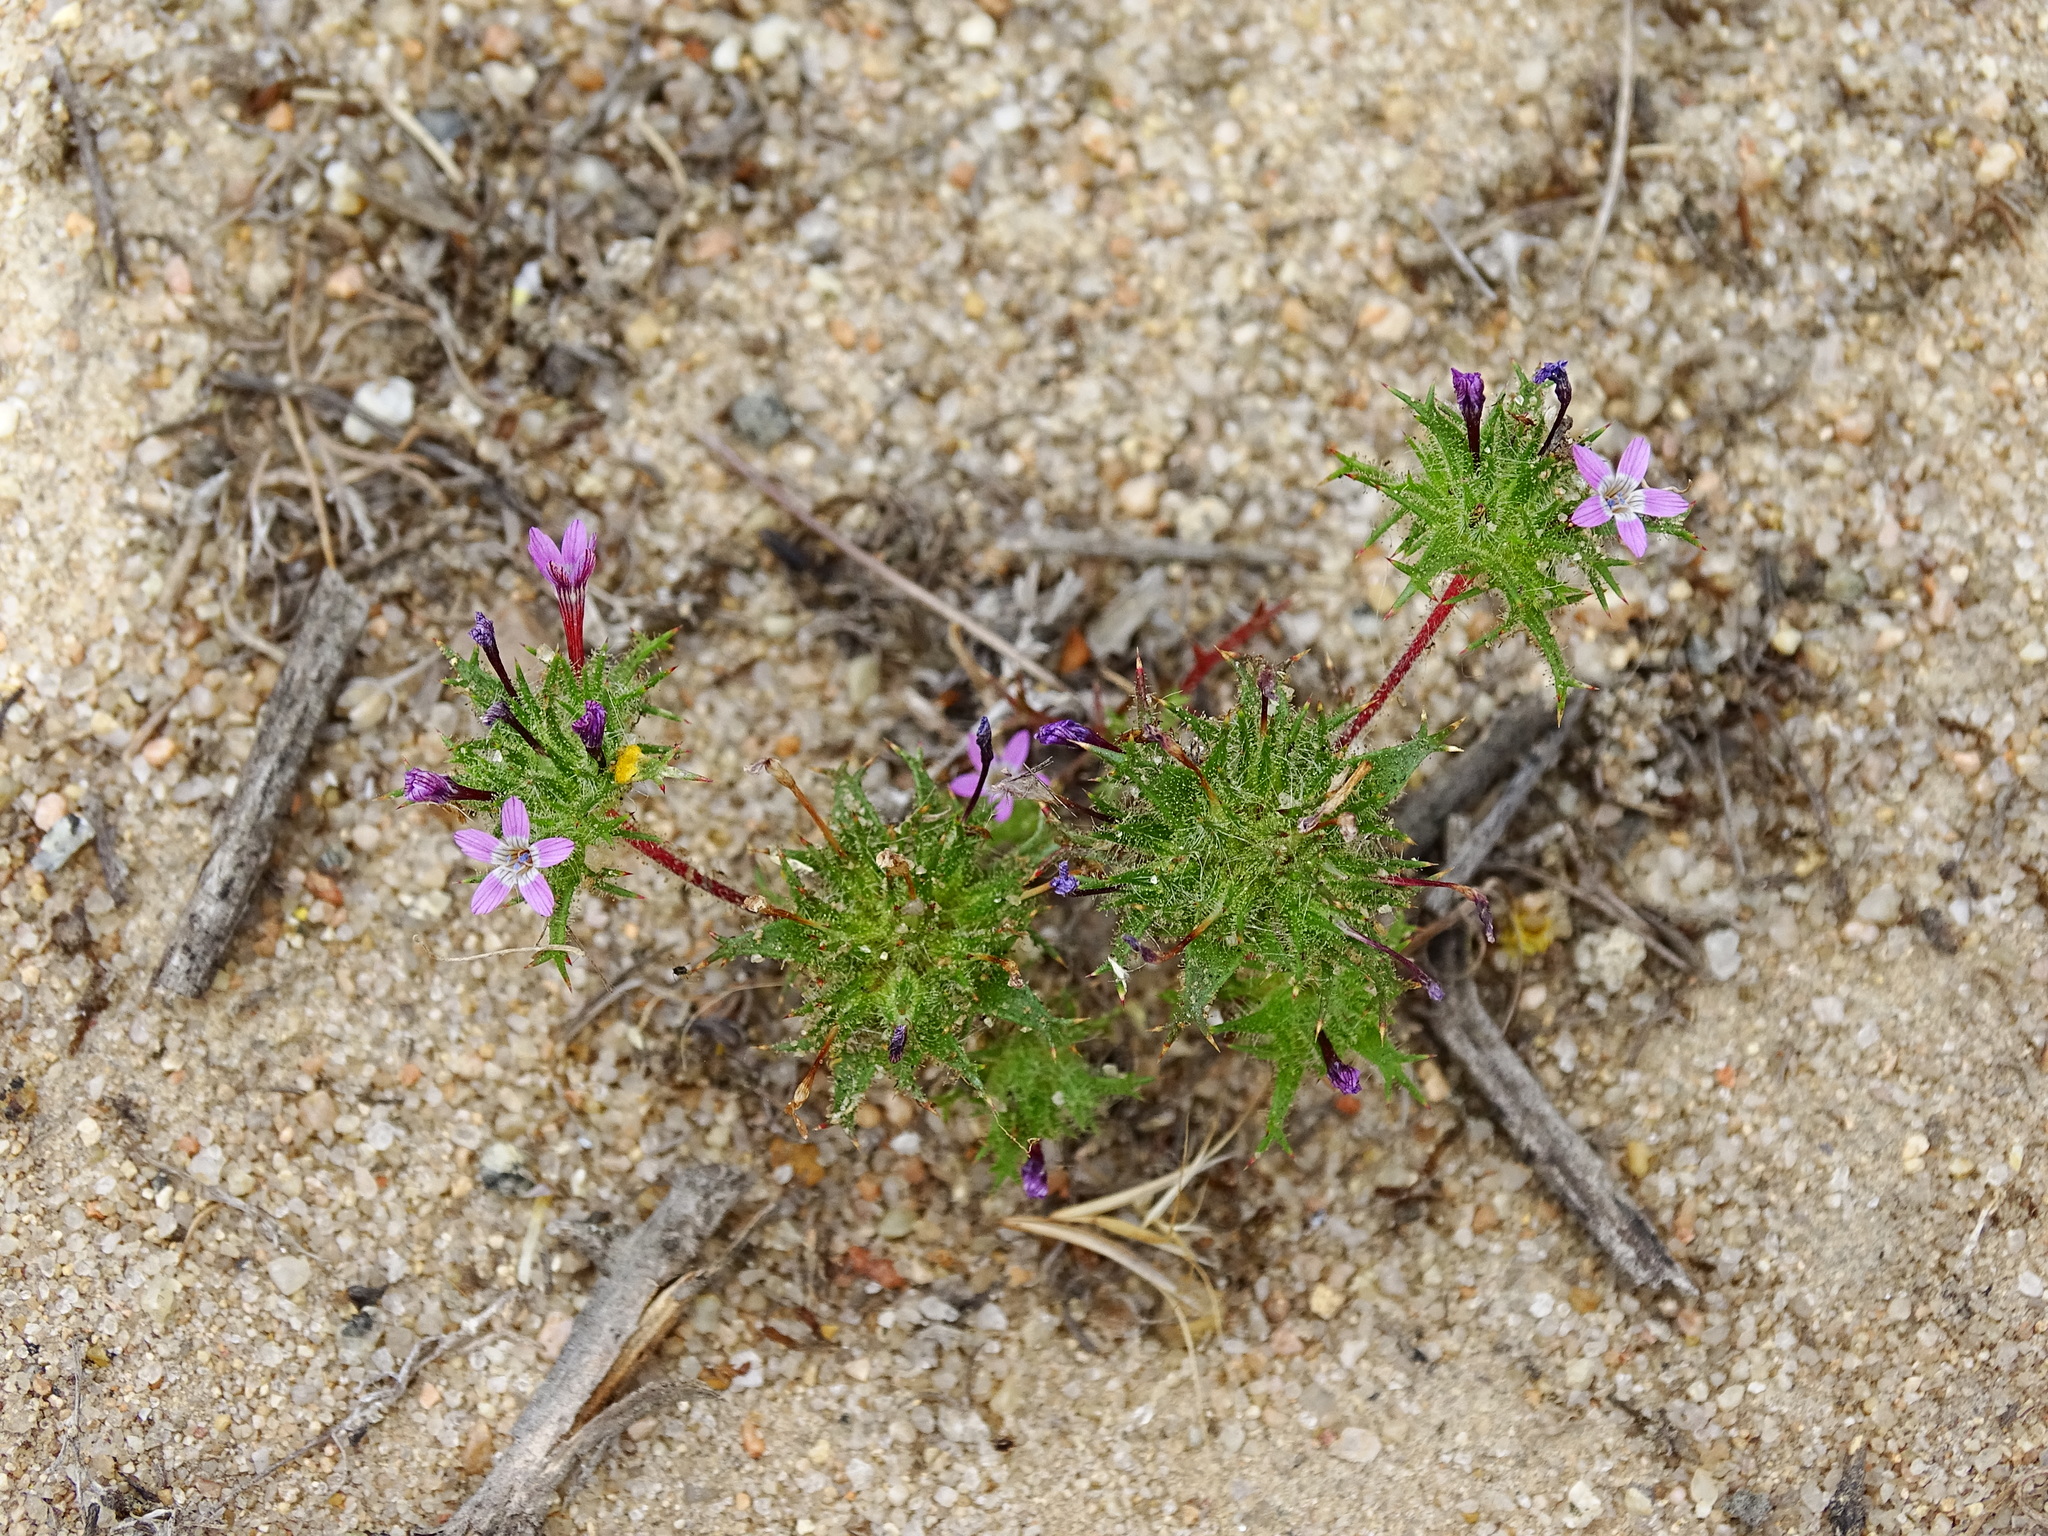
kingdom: Plantae
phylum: Tracheophyta
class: Magnoliopsida
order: Ericales
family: Polemoniaceae
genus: Navarretia
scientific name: Navarretia hamata
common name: Hooked navarretia
